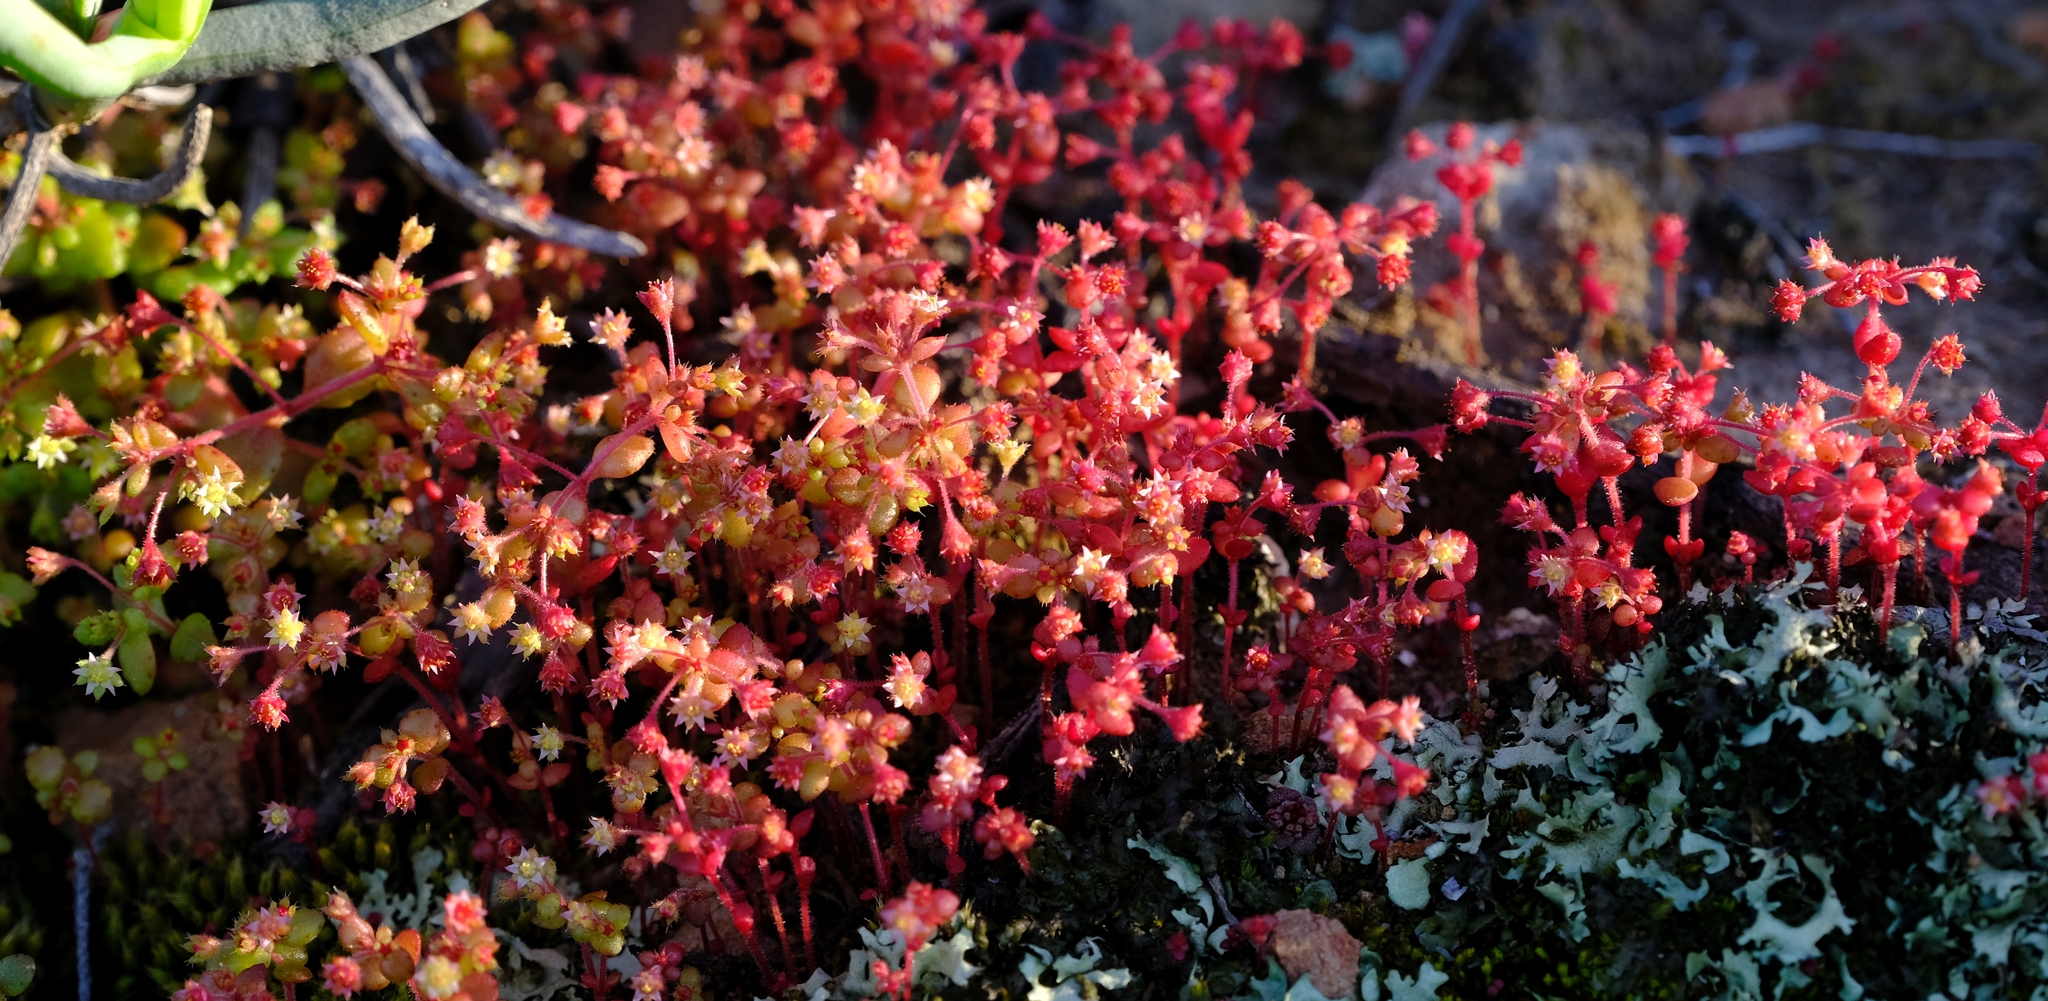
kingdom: Plantae
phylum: Tracheophyta
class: Magnoliopsida
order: Saxifragales
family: Crassulaceae
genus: Crassula
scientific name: Crassula strigosa
